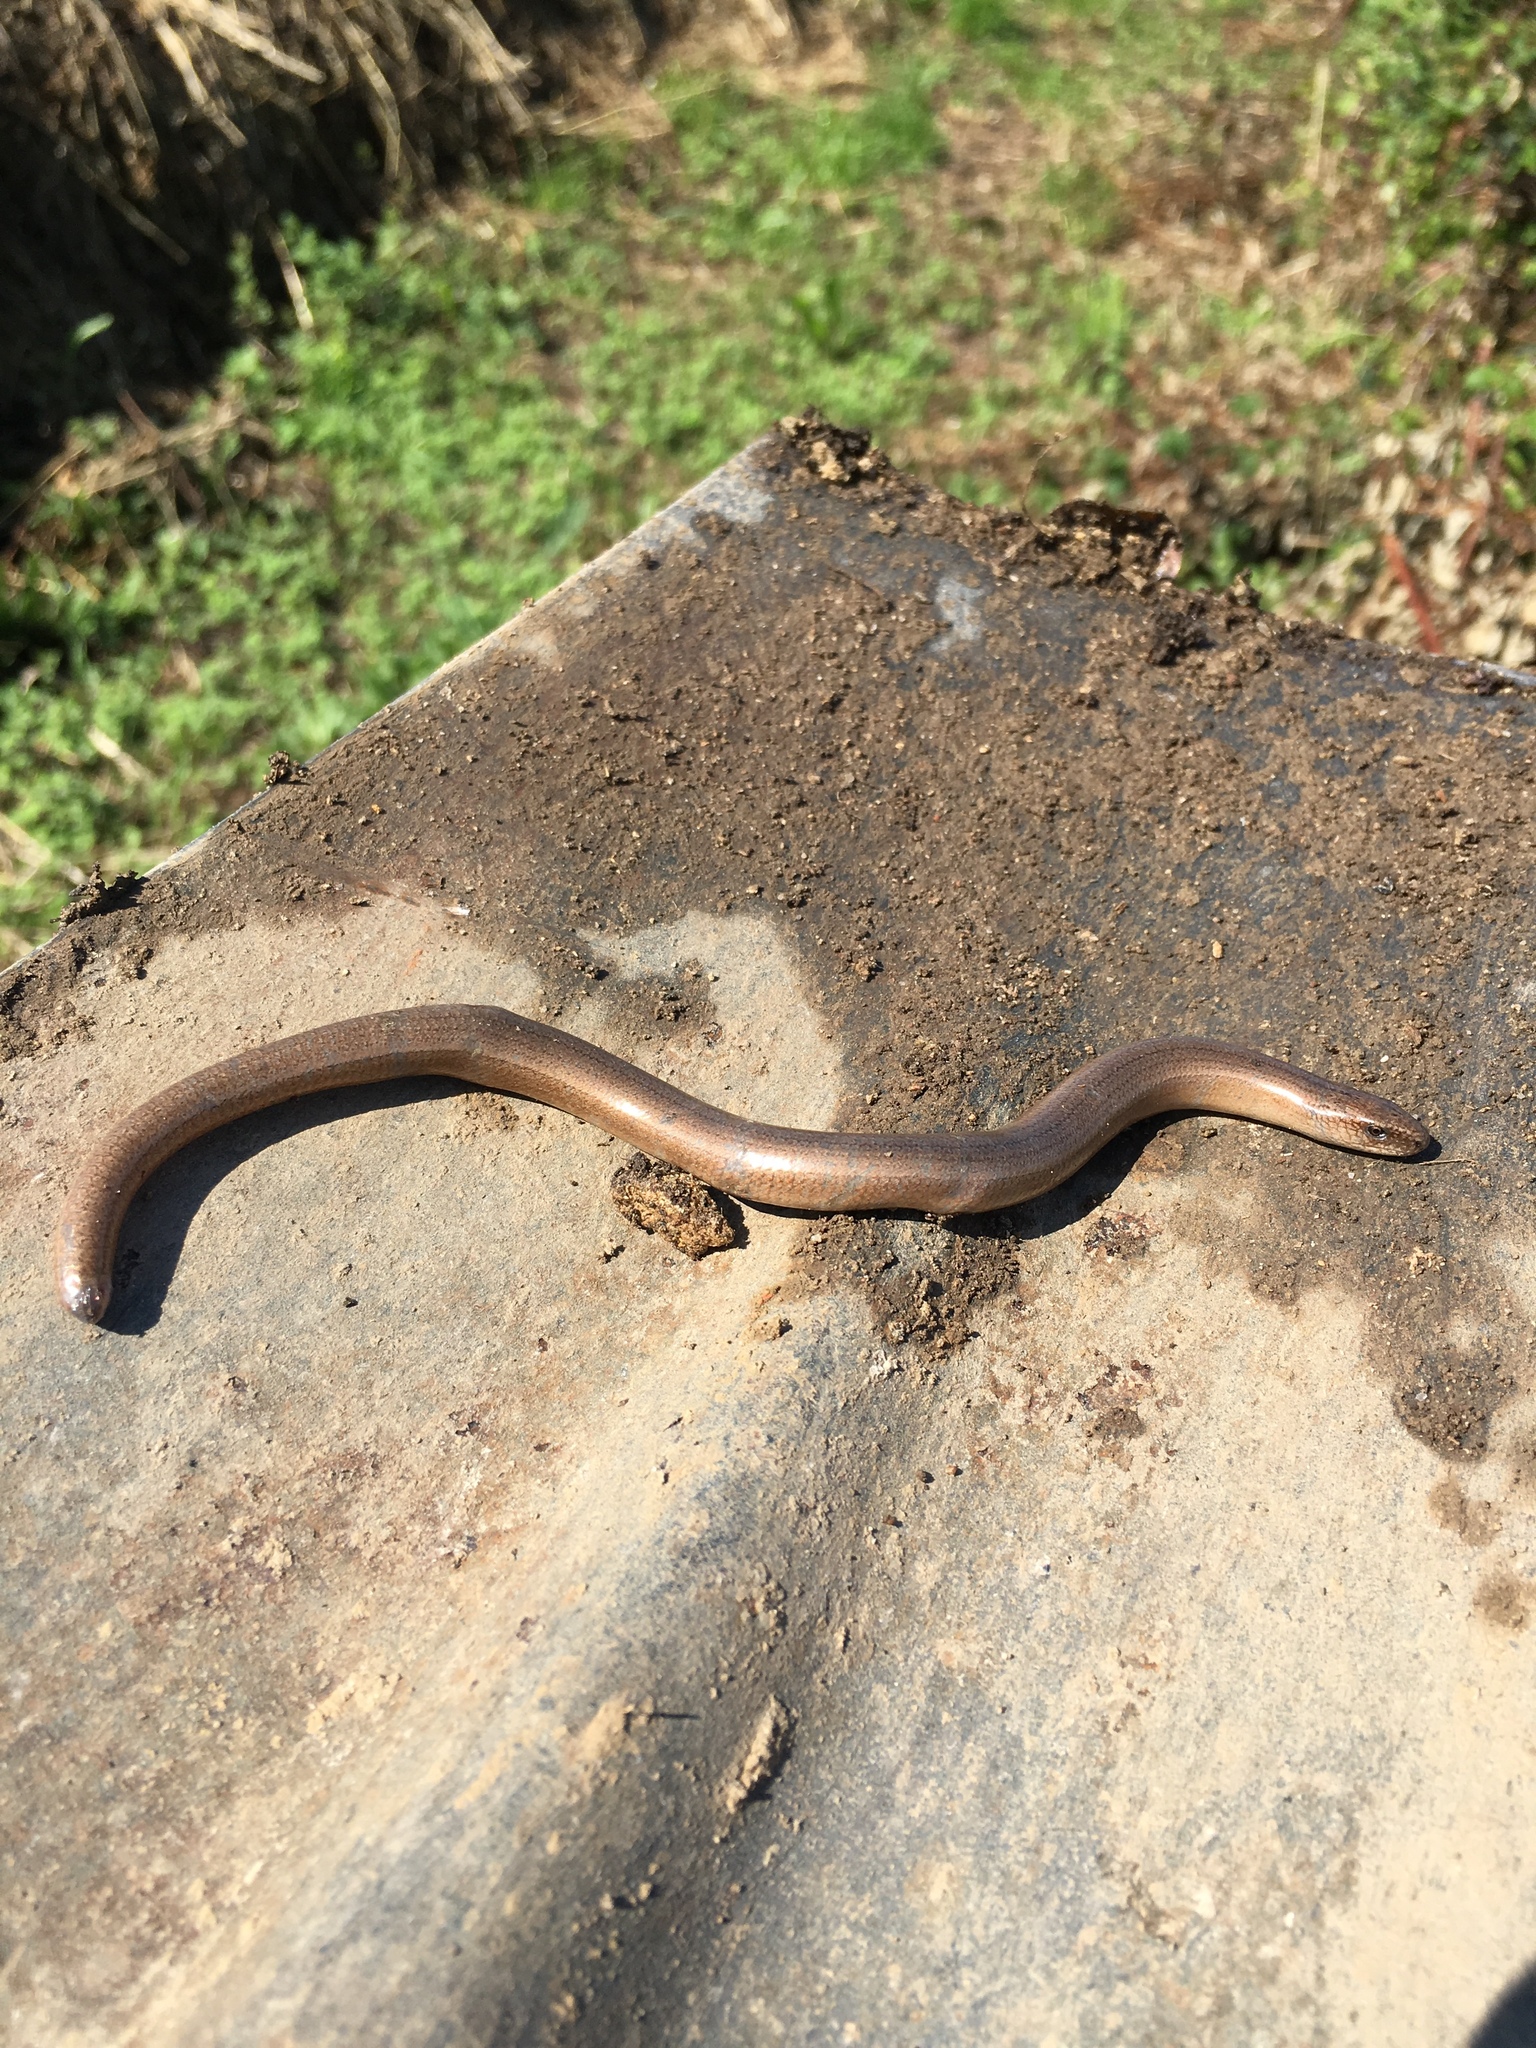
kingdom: Animalia
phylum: Chordata
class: Squamata
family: Anguidae
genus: Anguis
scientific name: Anguis fragilis
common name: Slow worm
